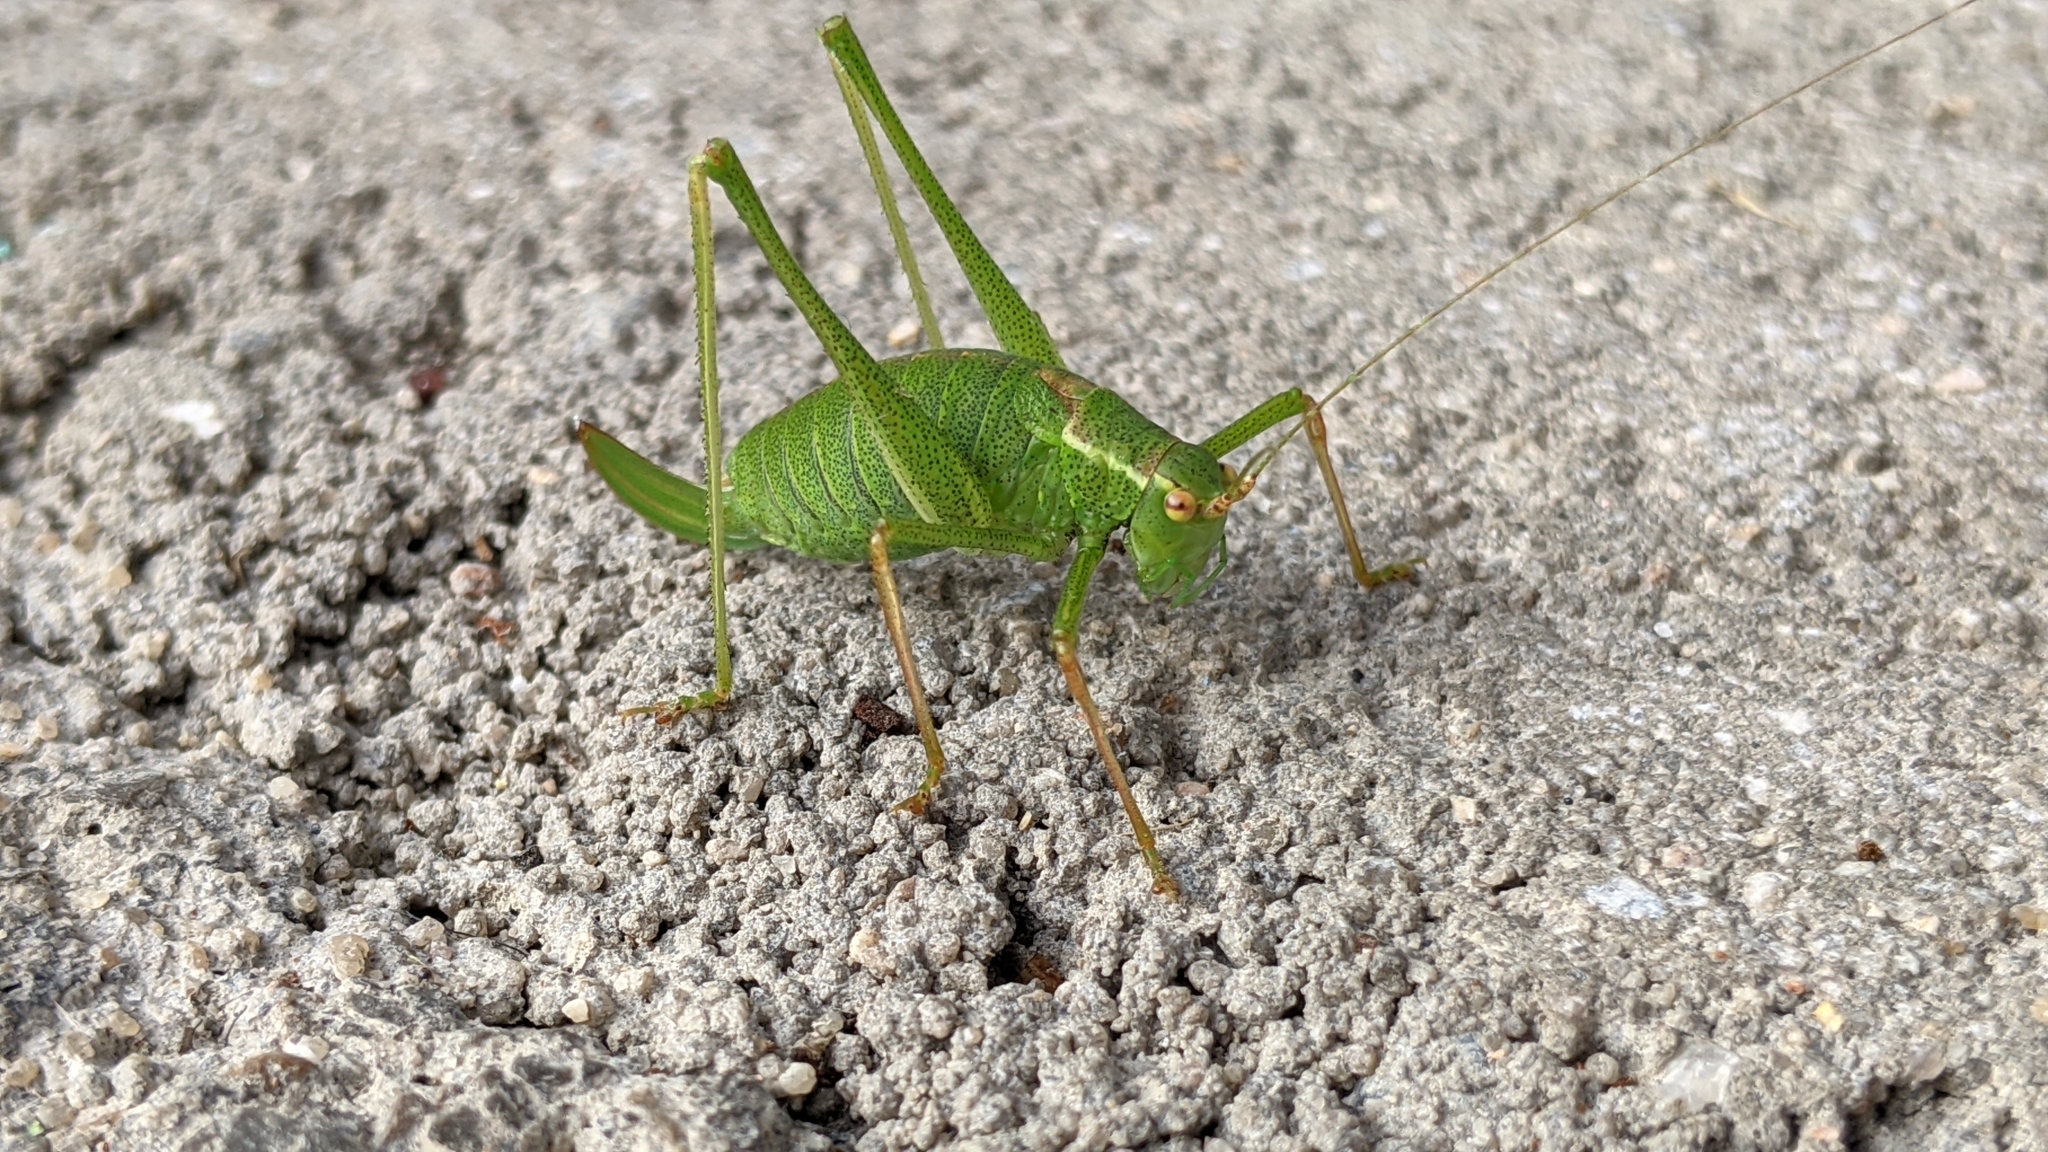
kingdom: Animalia
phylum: Arthropoda
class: Insecta
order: Orthoptera
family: Tettigoniidae
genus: Leptophyes
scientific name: Leptophyes punctatissima
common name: Speckled bush-cricket
